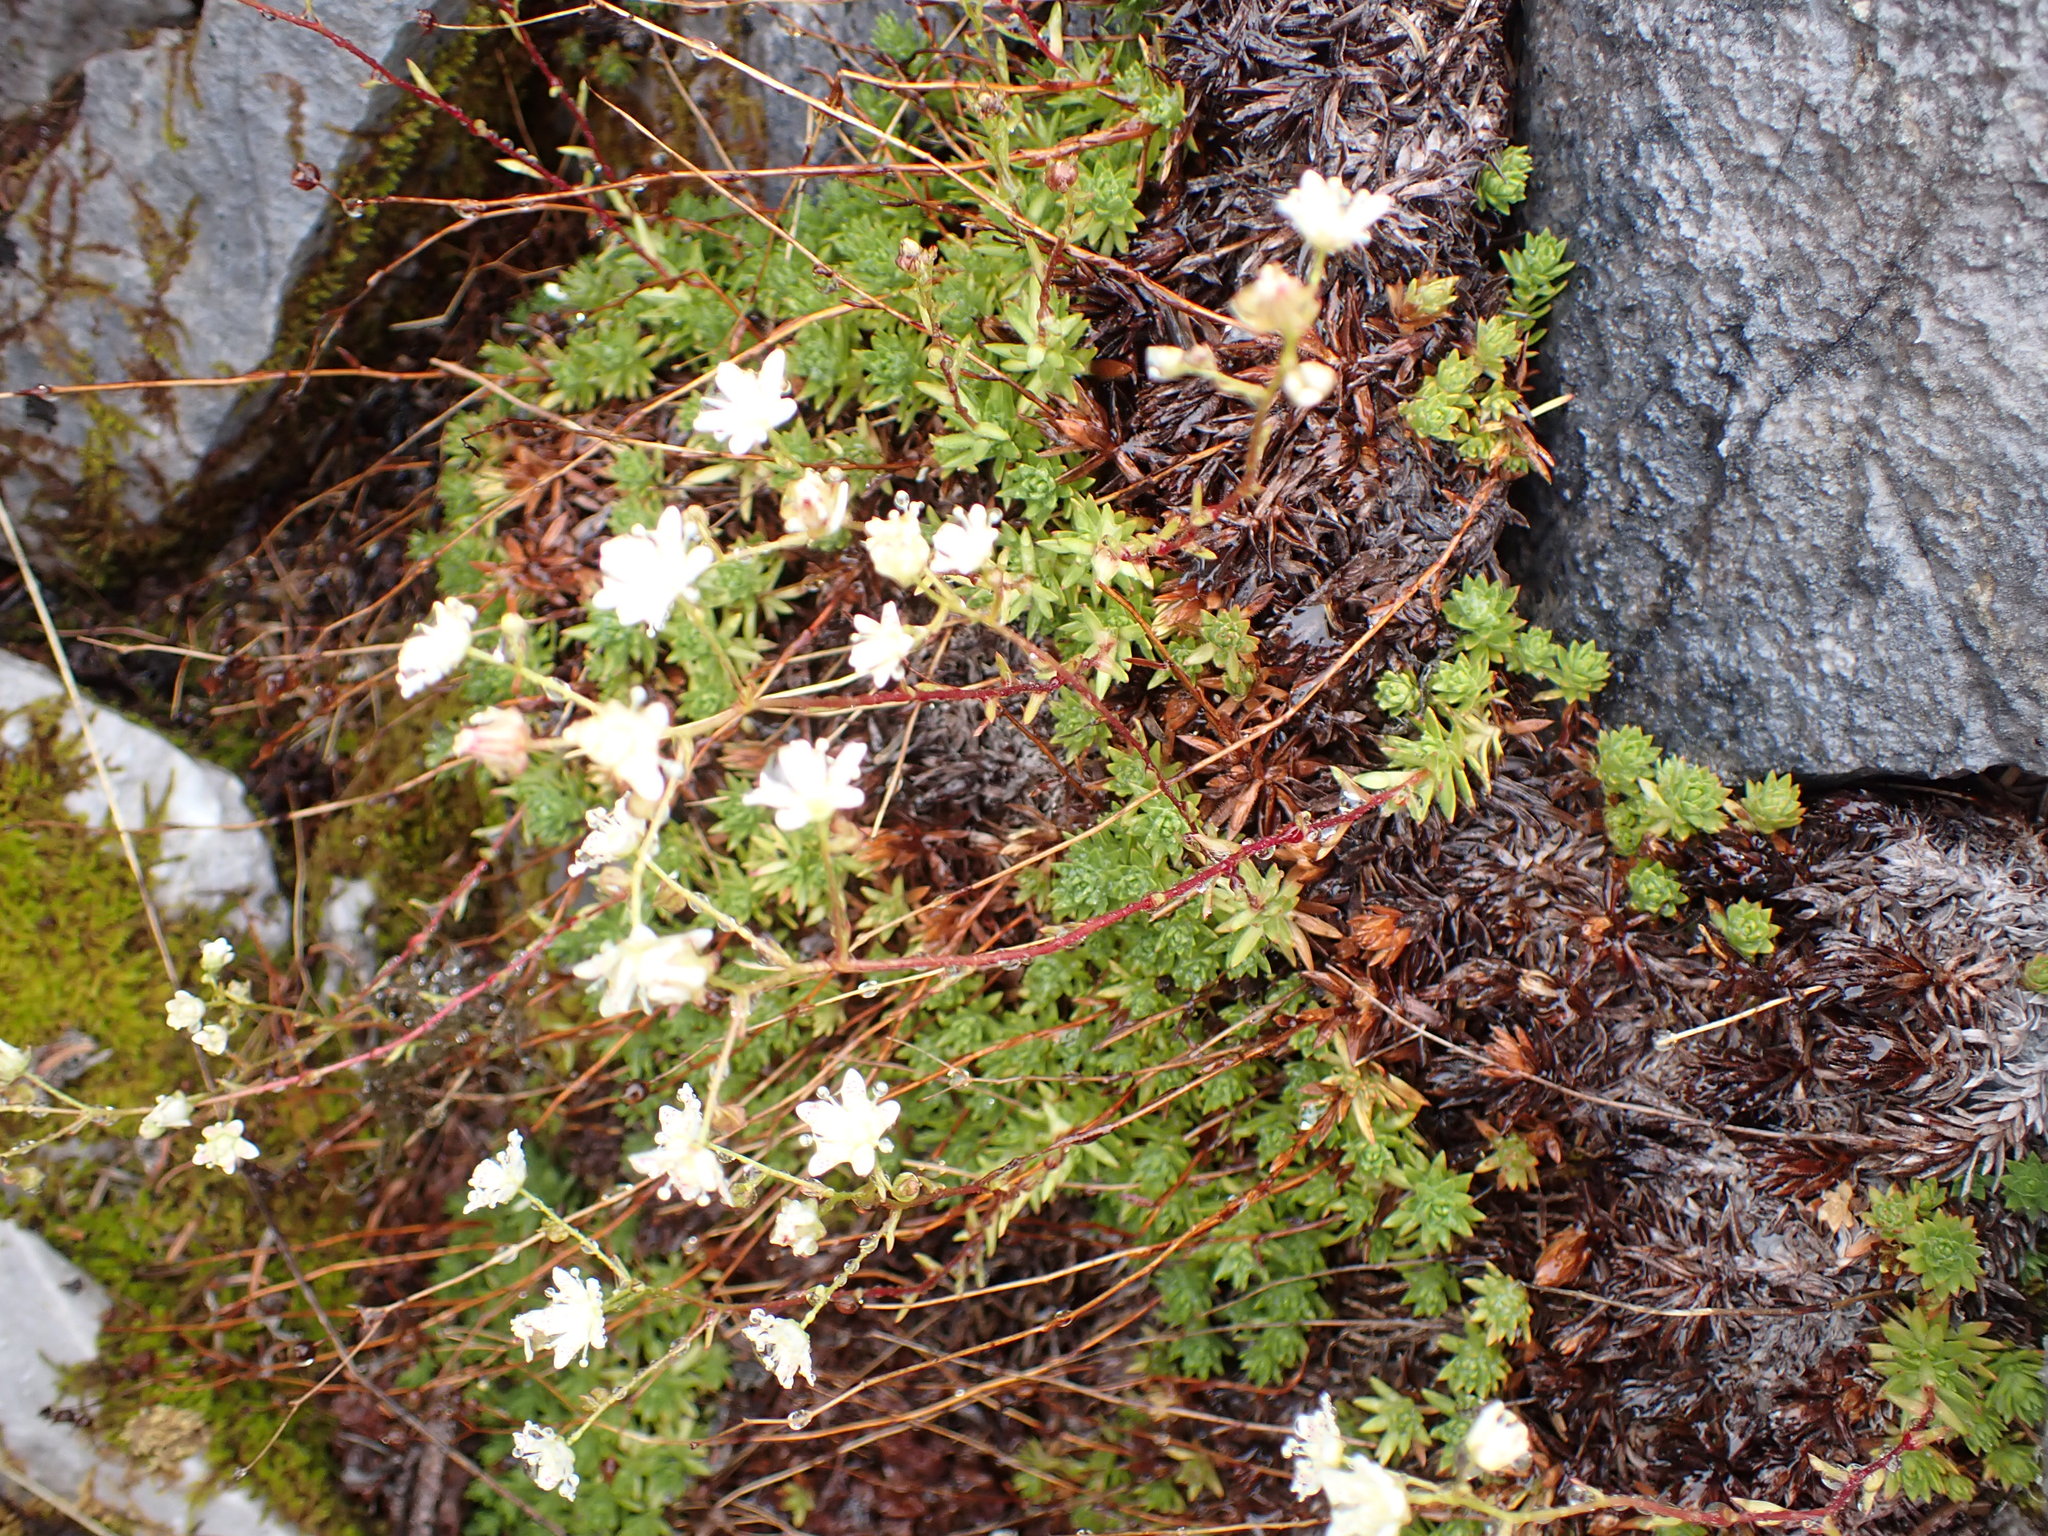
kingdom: Plantae
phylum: Tracheophyta
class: Magnoliopsida
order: Saxifragales
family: Saxifragaceae
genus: Saxifraga
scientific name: Saxifraga bronchialis
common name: Matted saxifrage
